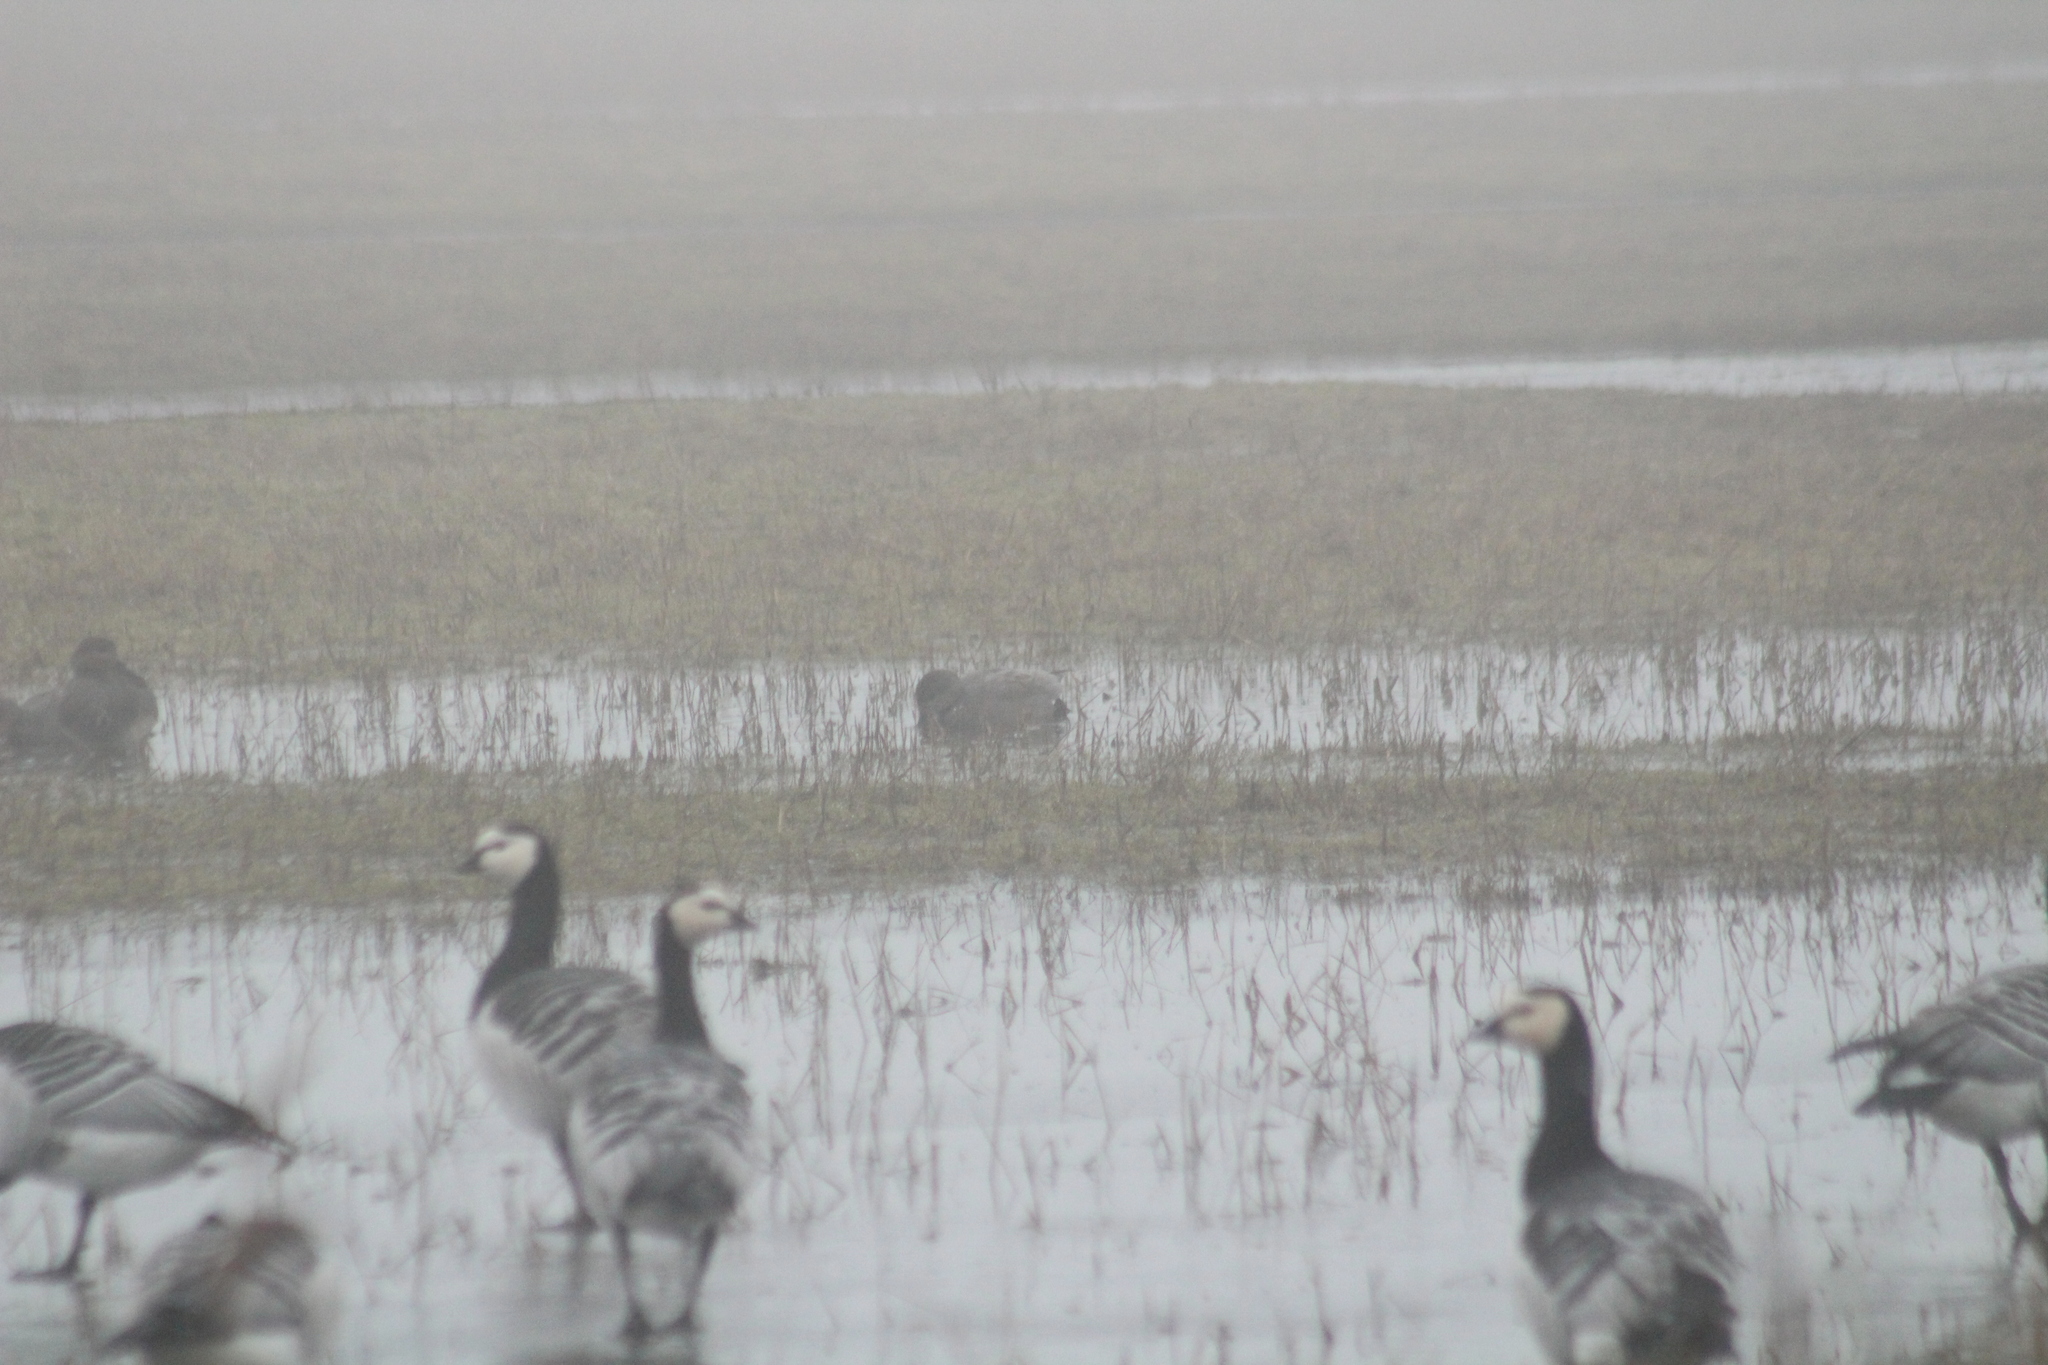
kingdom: Animalia
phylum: Chordata
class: Aves
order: Anseriformes
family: Anatidae
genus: Mareca
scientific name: Mareca strepera
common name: Gadwall
